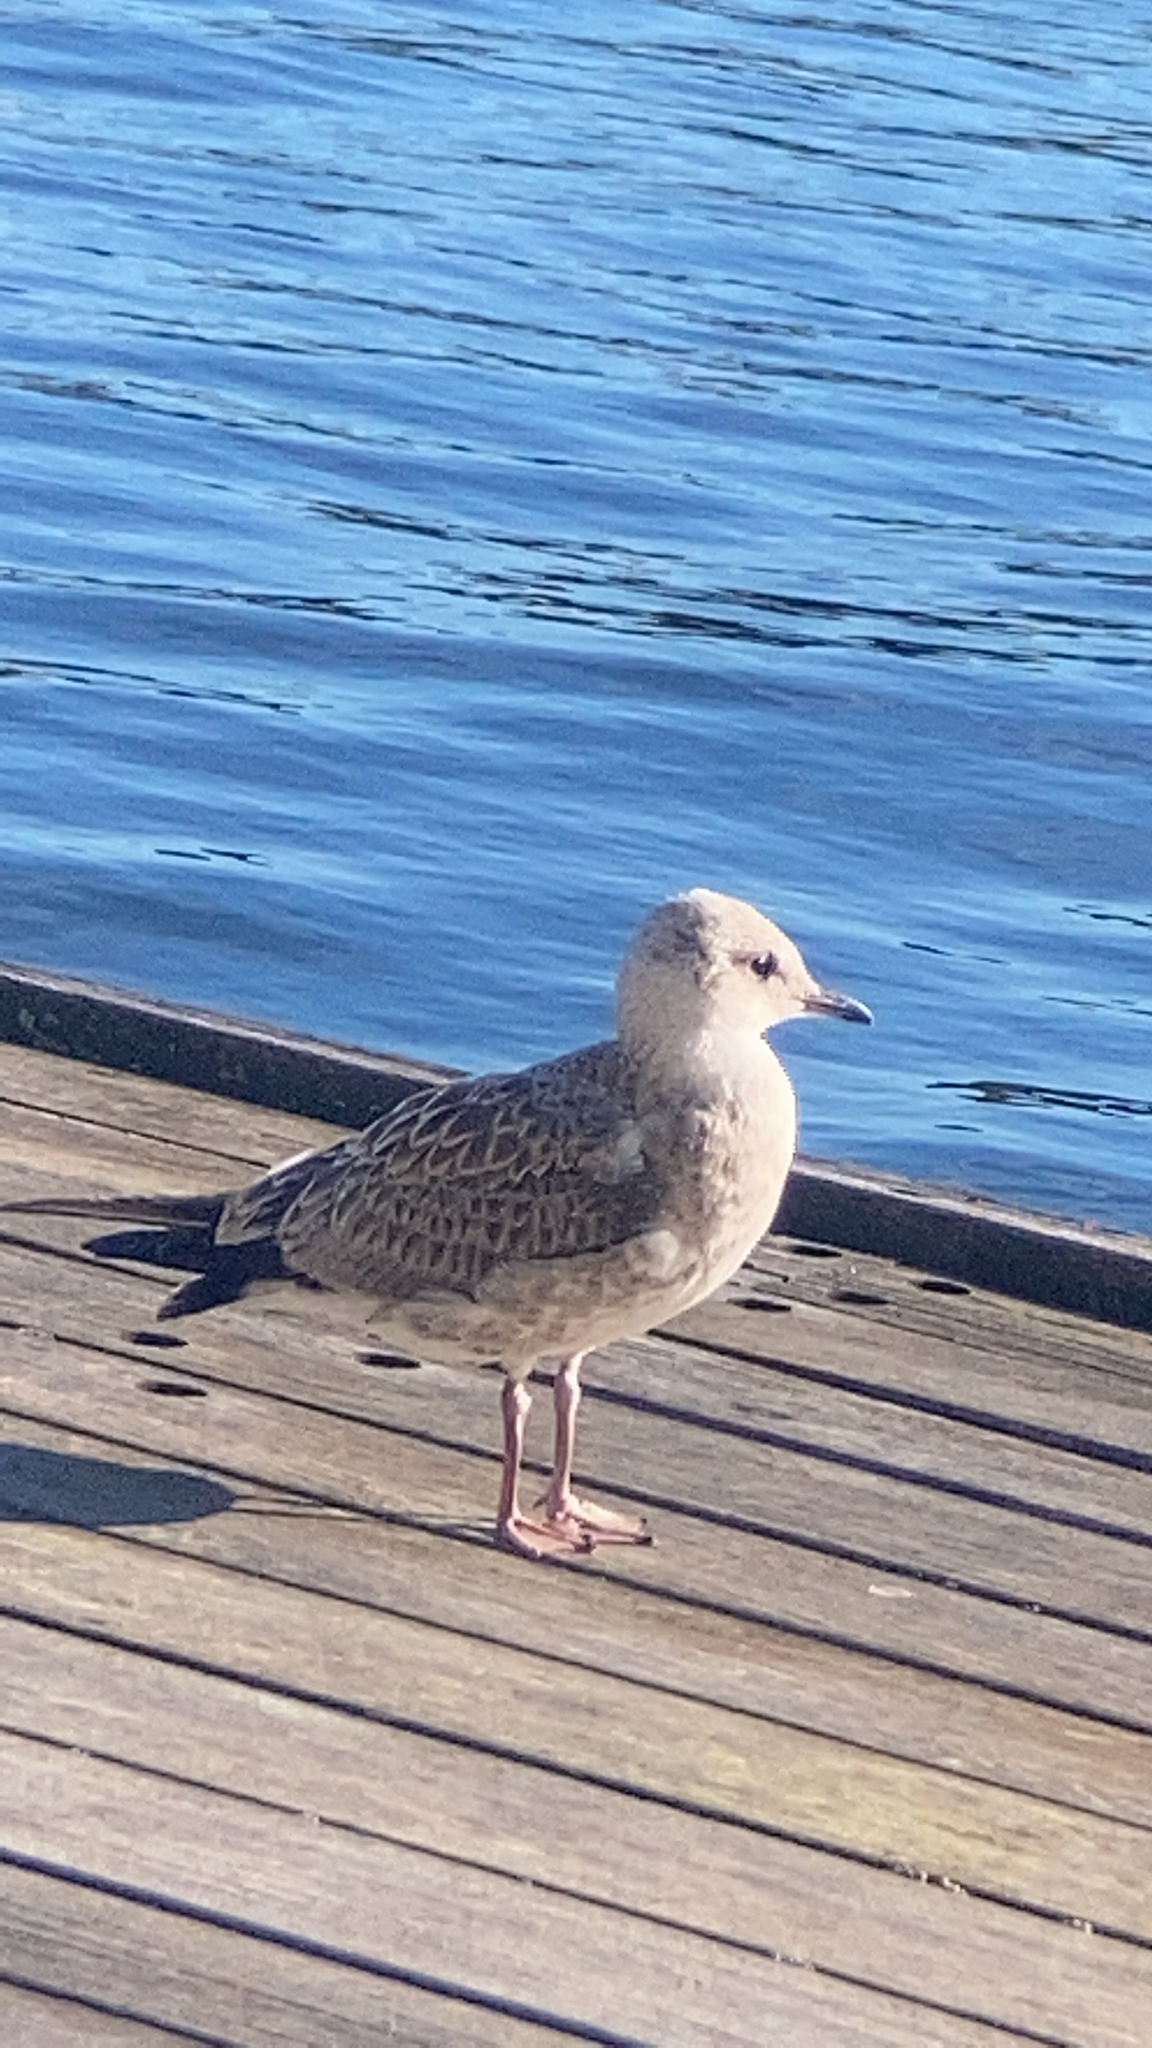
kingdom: Animalia
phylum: Chordata
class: Aves
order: Charadriiformes
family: Laridae
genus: Larus
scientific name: Larus canus
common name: Mew gull
